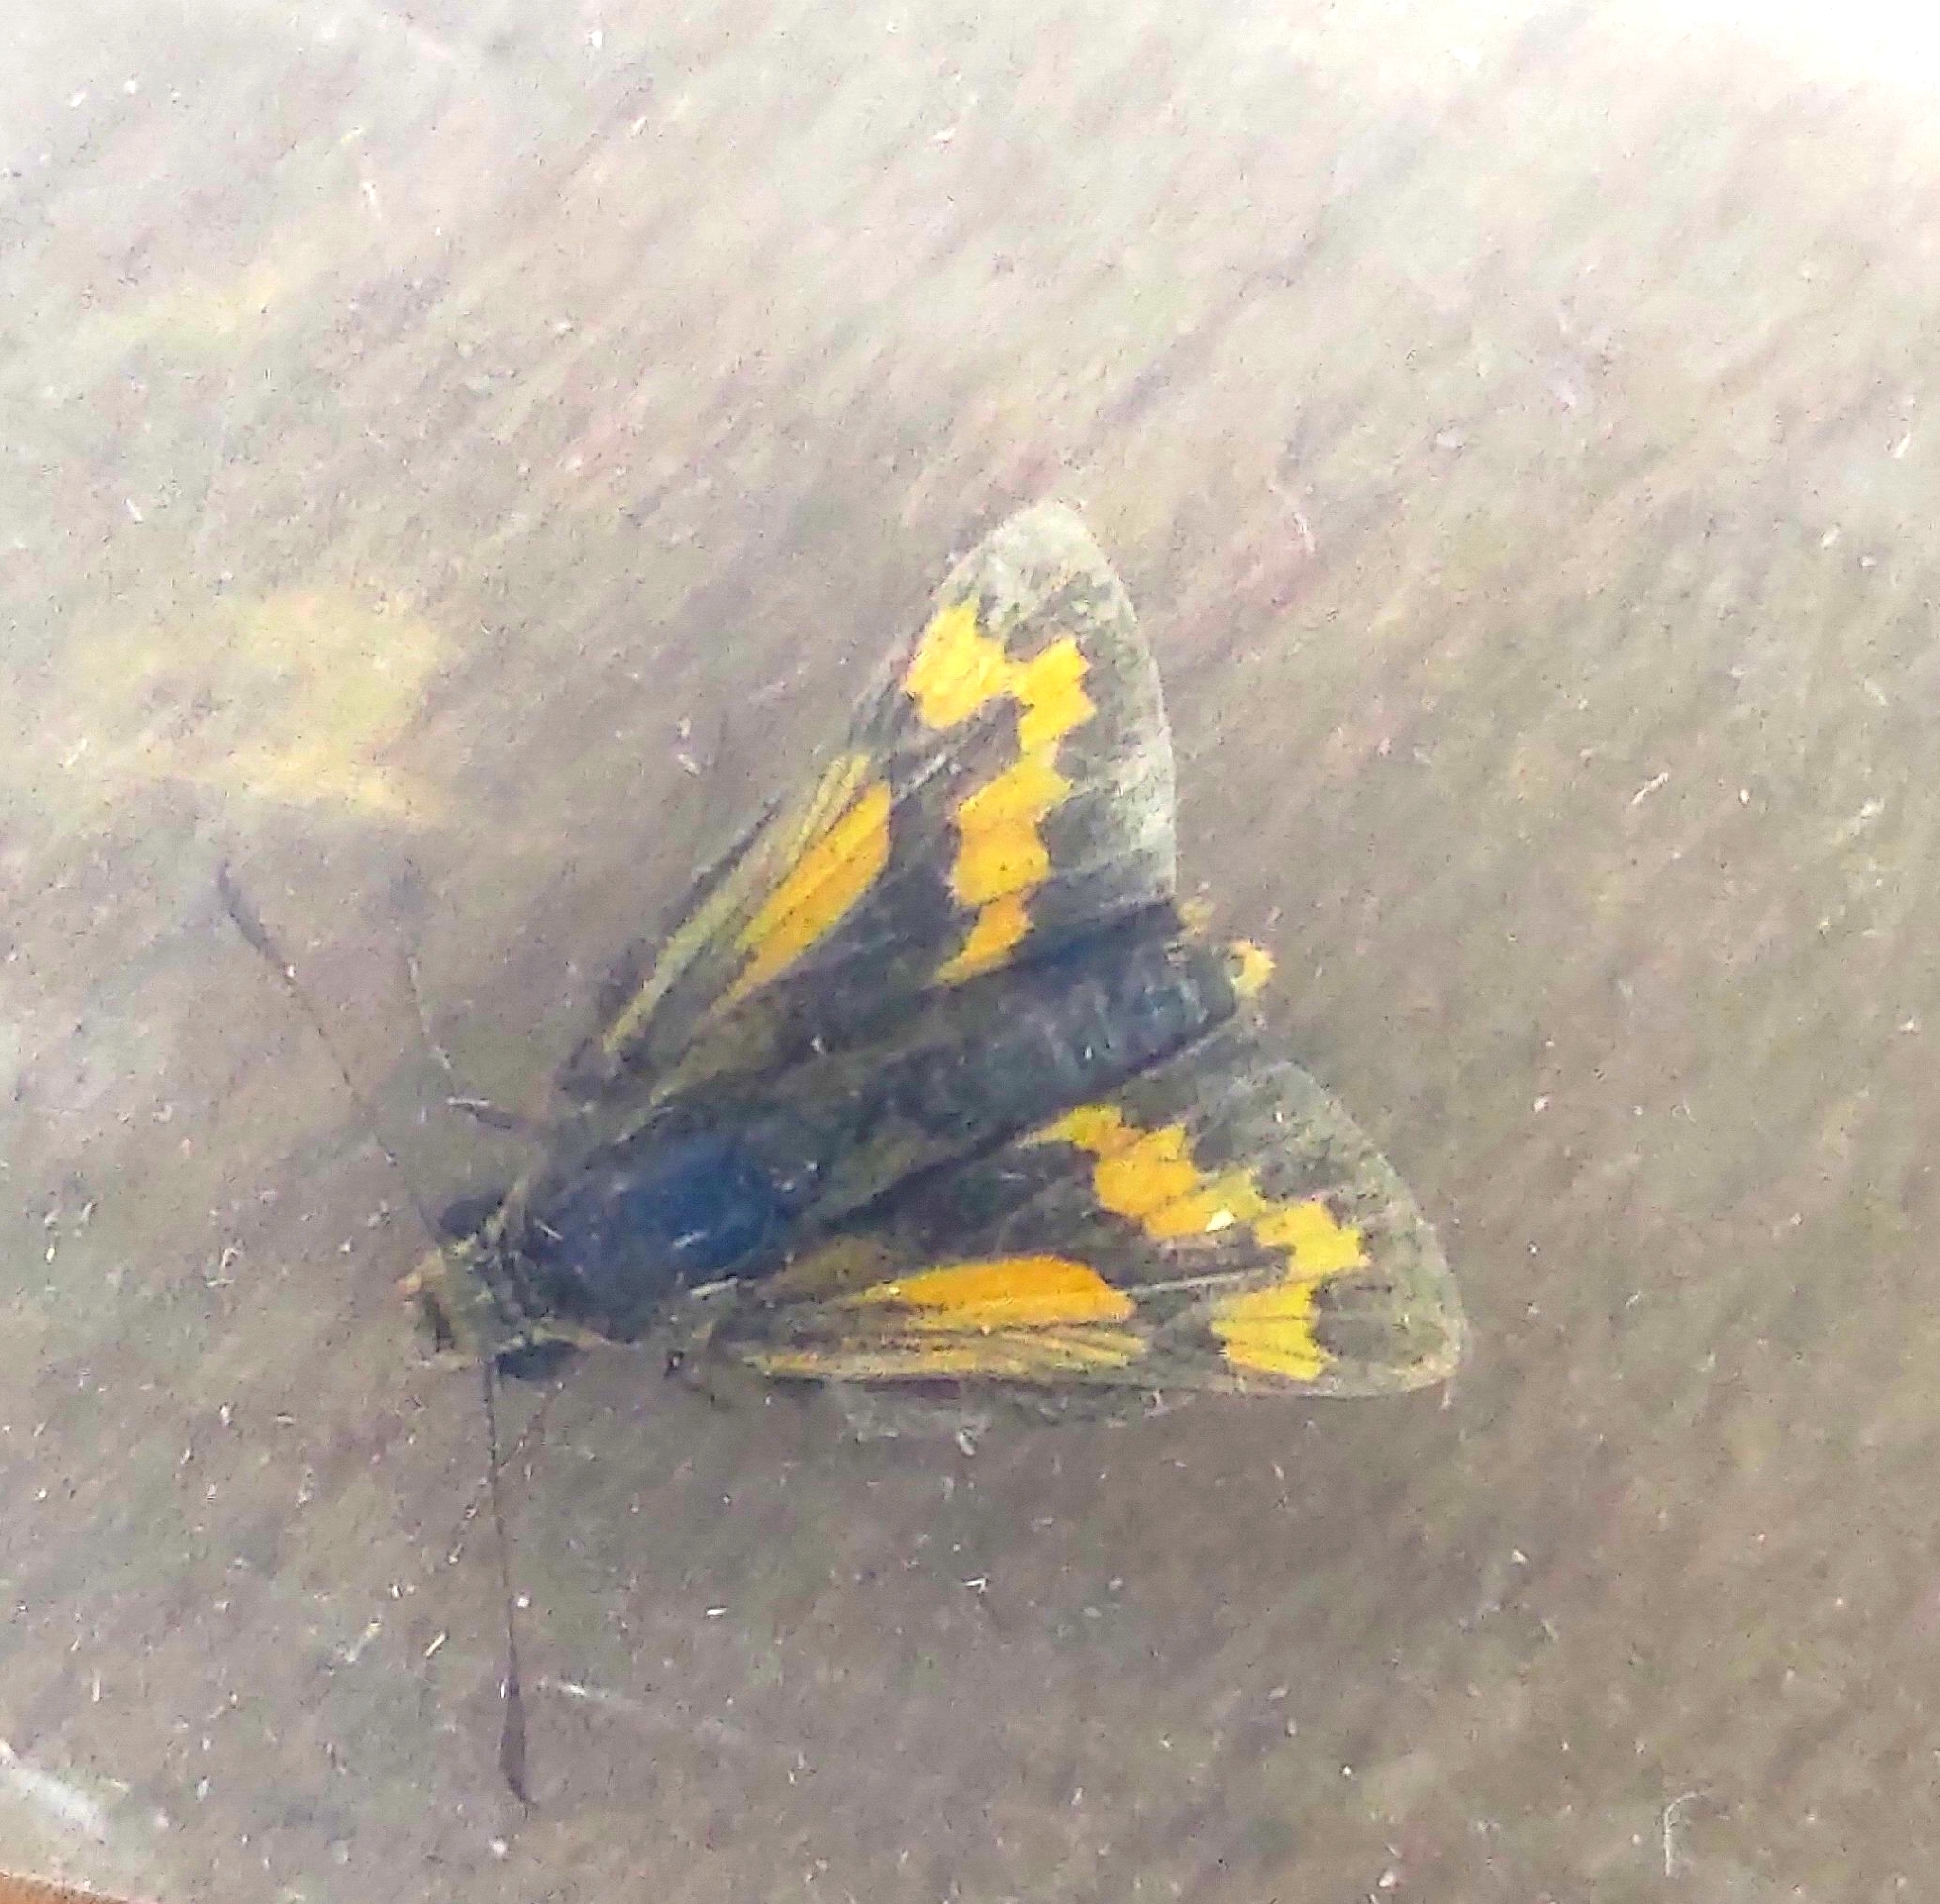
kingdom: Animalia
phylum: Arthropoda
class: Insecta
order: Lepidoptera
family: Hesperiidae
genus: Potanthus
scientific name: Potanthus confucius
